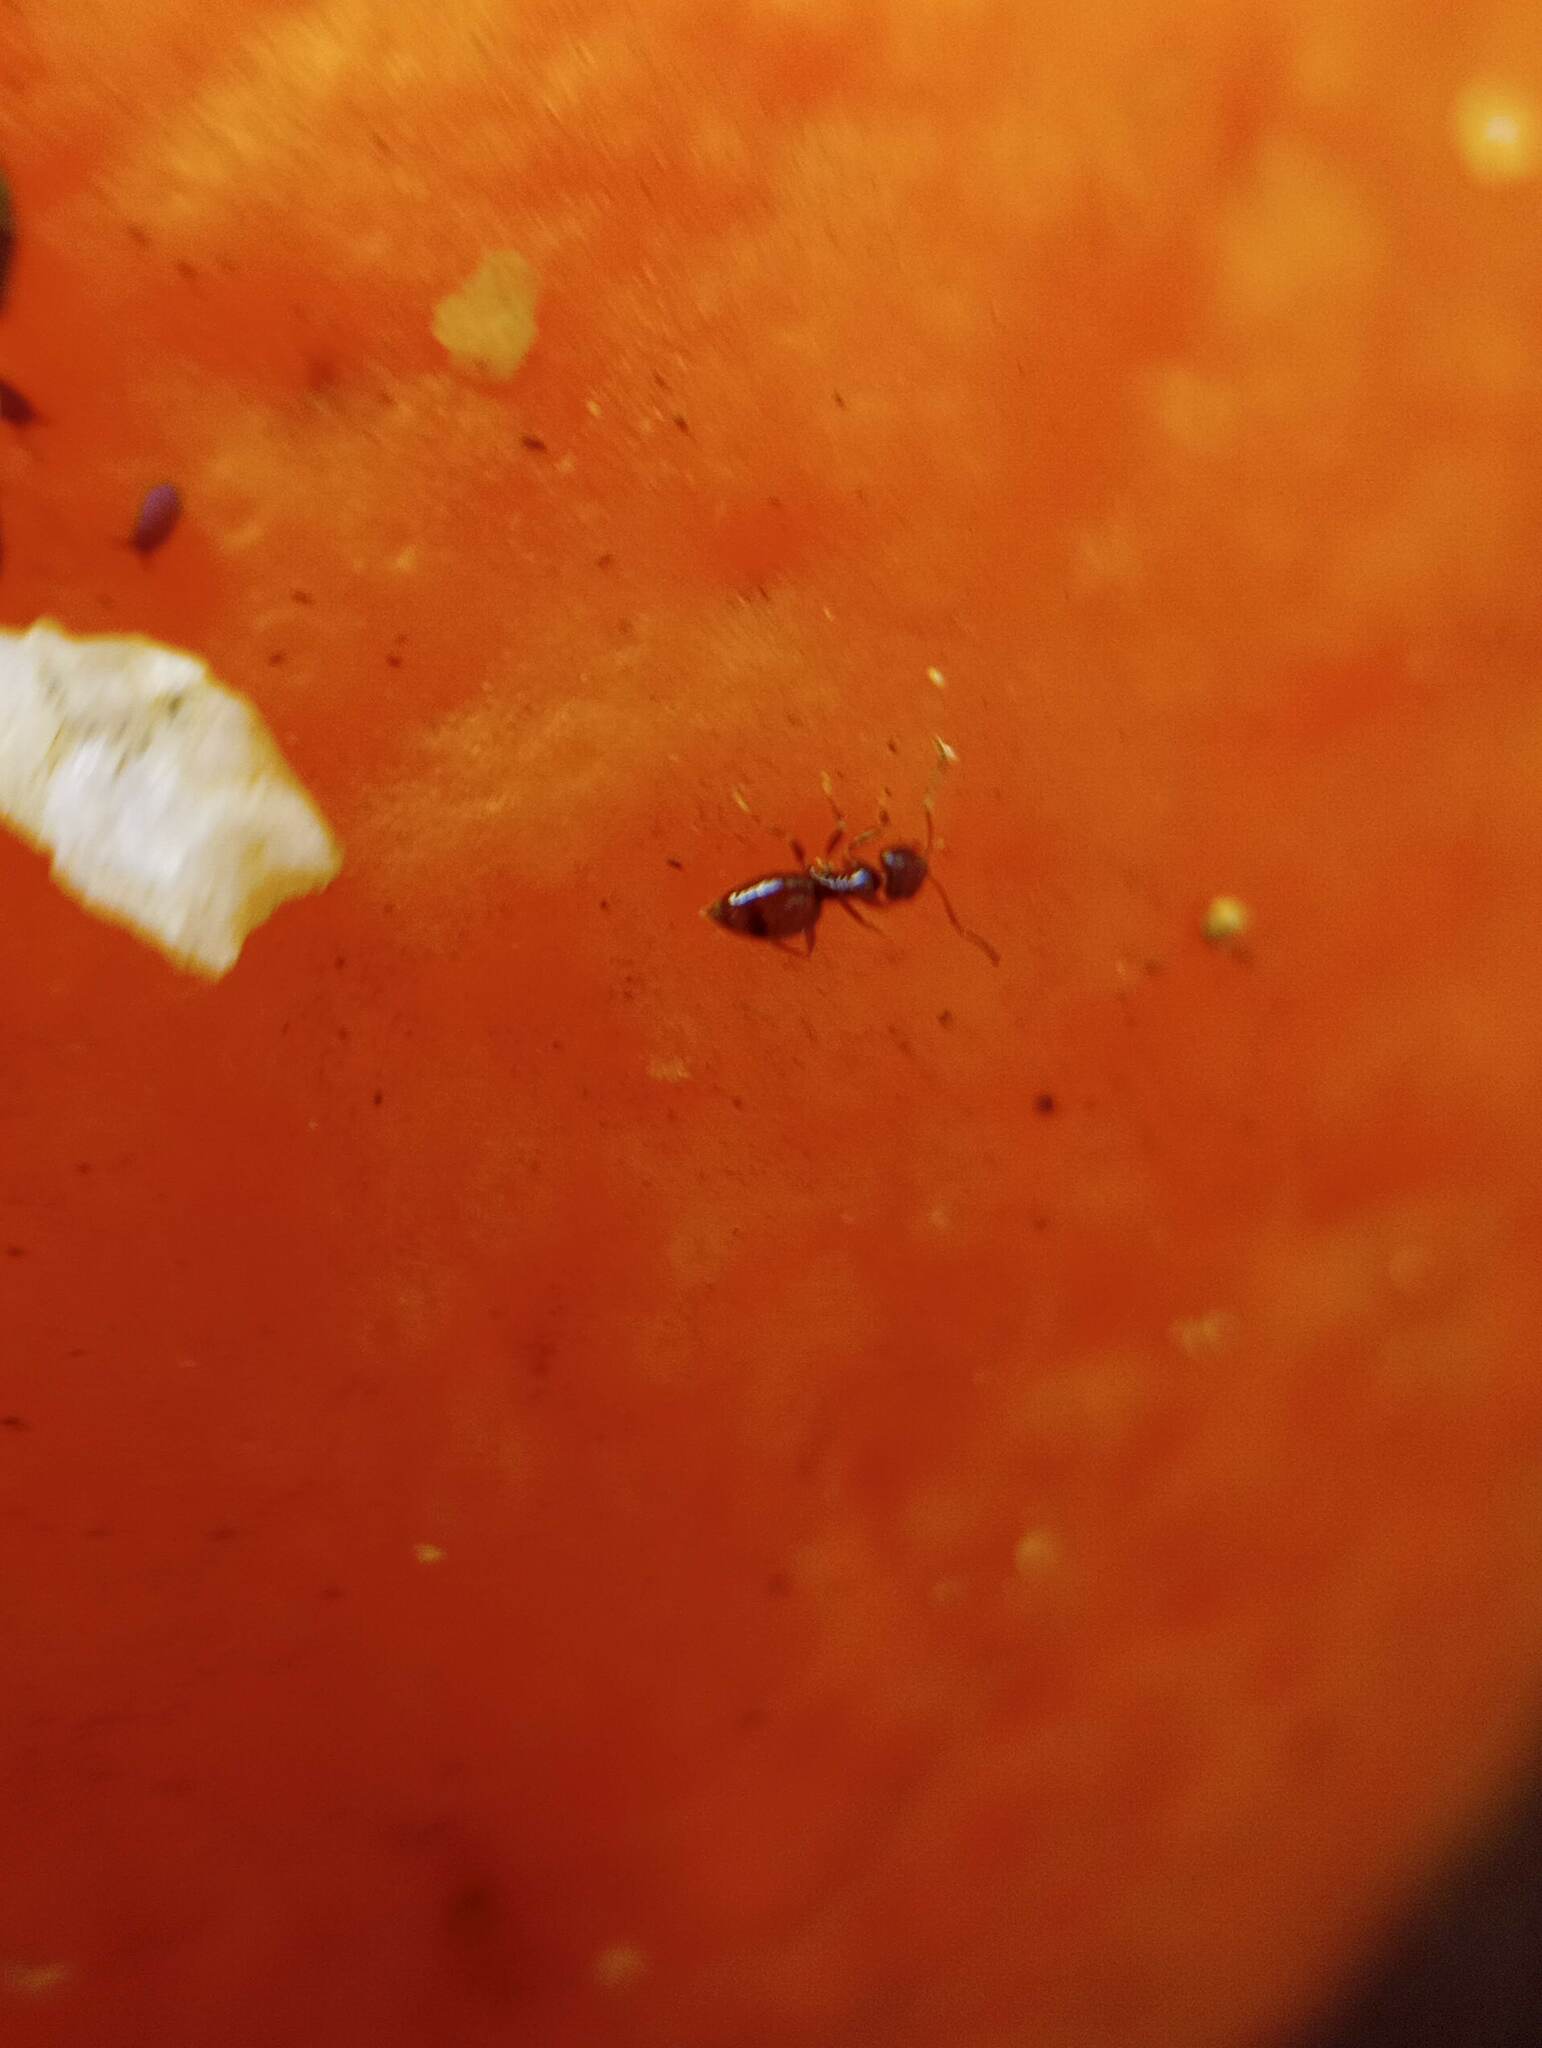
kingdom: Animalia
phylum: Arthropoda
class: Insecta
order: Hymenoptera
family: Formicidae
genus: Brachymyrmex
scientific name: Brachymyrmex patagonicus
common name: Dark rover ant
